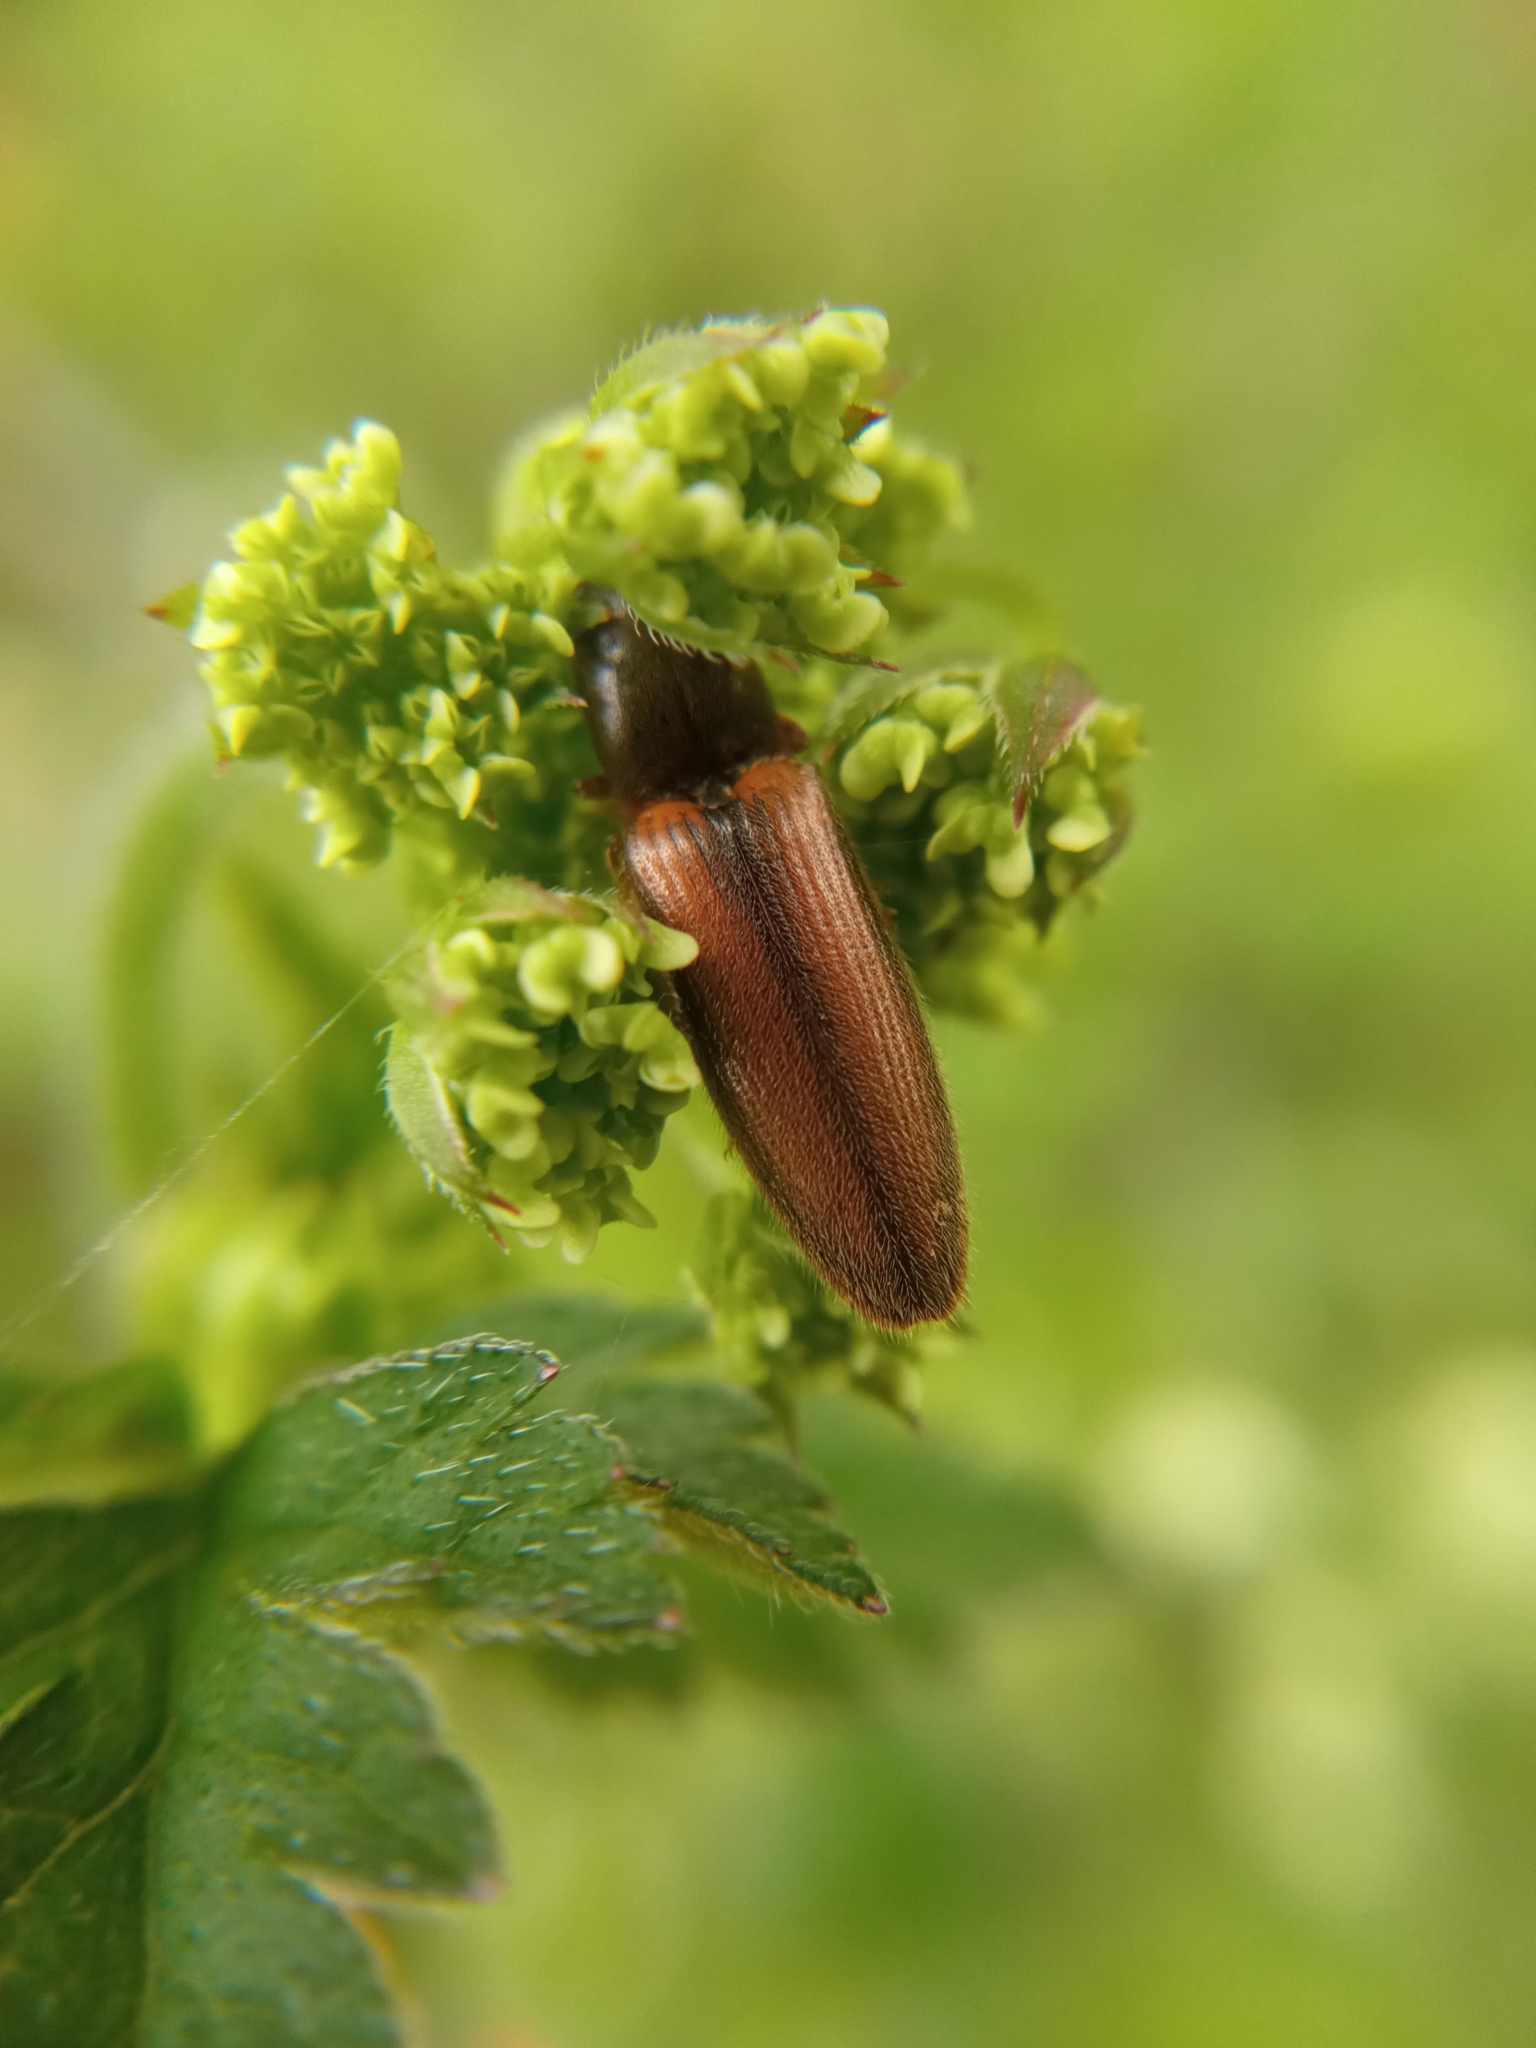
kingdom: Animalia
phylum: Arthropoda
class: Insecta
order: Coleoptera
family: Elateridae
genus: Athous
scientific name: Athous vittatus
